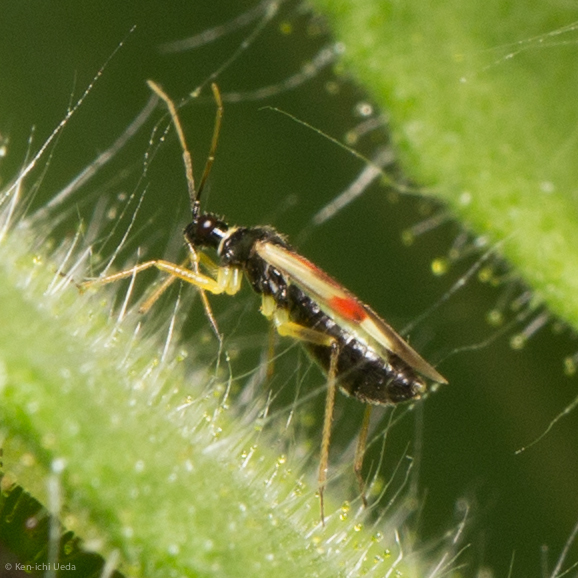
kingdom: Animalia
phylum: Arthropoda
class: Insecta
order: Hemiptera
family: Miridae
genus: Tupiocoris
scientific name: Tupiocoris californicus
